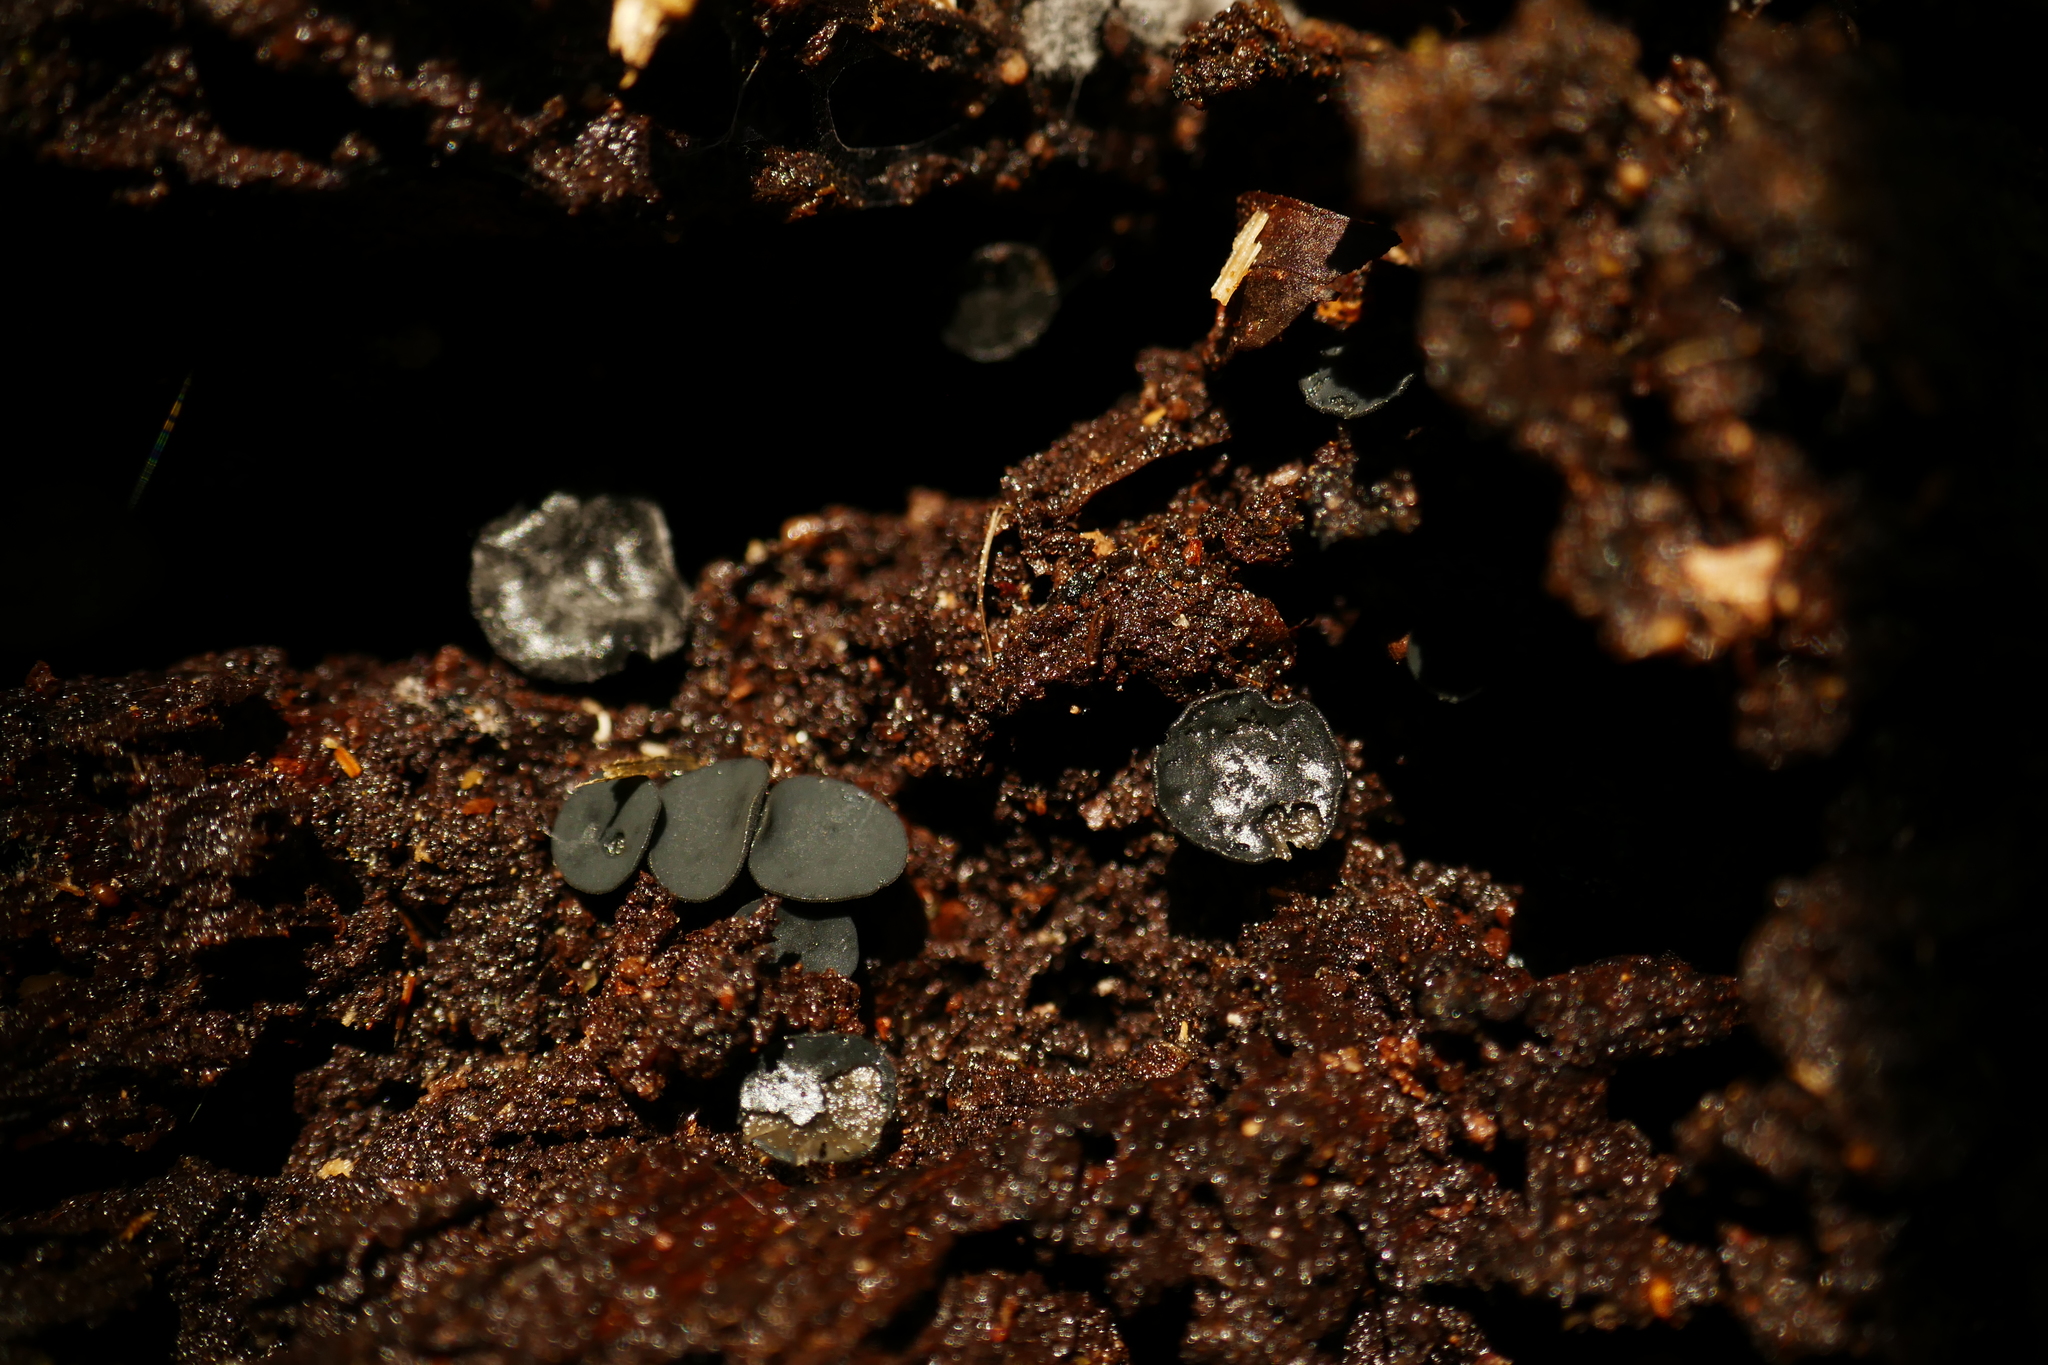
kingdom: Fungi
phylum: Ascomycota
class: Leotiomycetes
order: Helotiales
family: Rutstroemiaceae
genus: Lanzia
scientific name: Lanzia lanaripes
